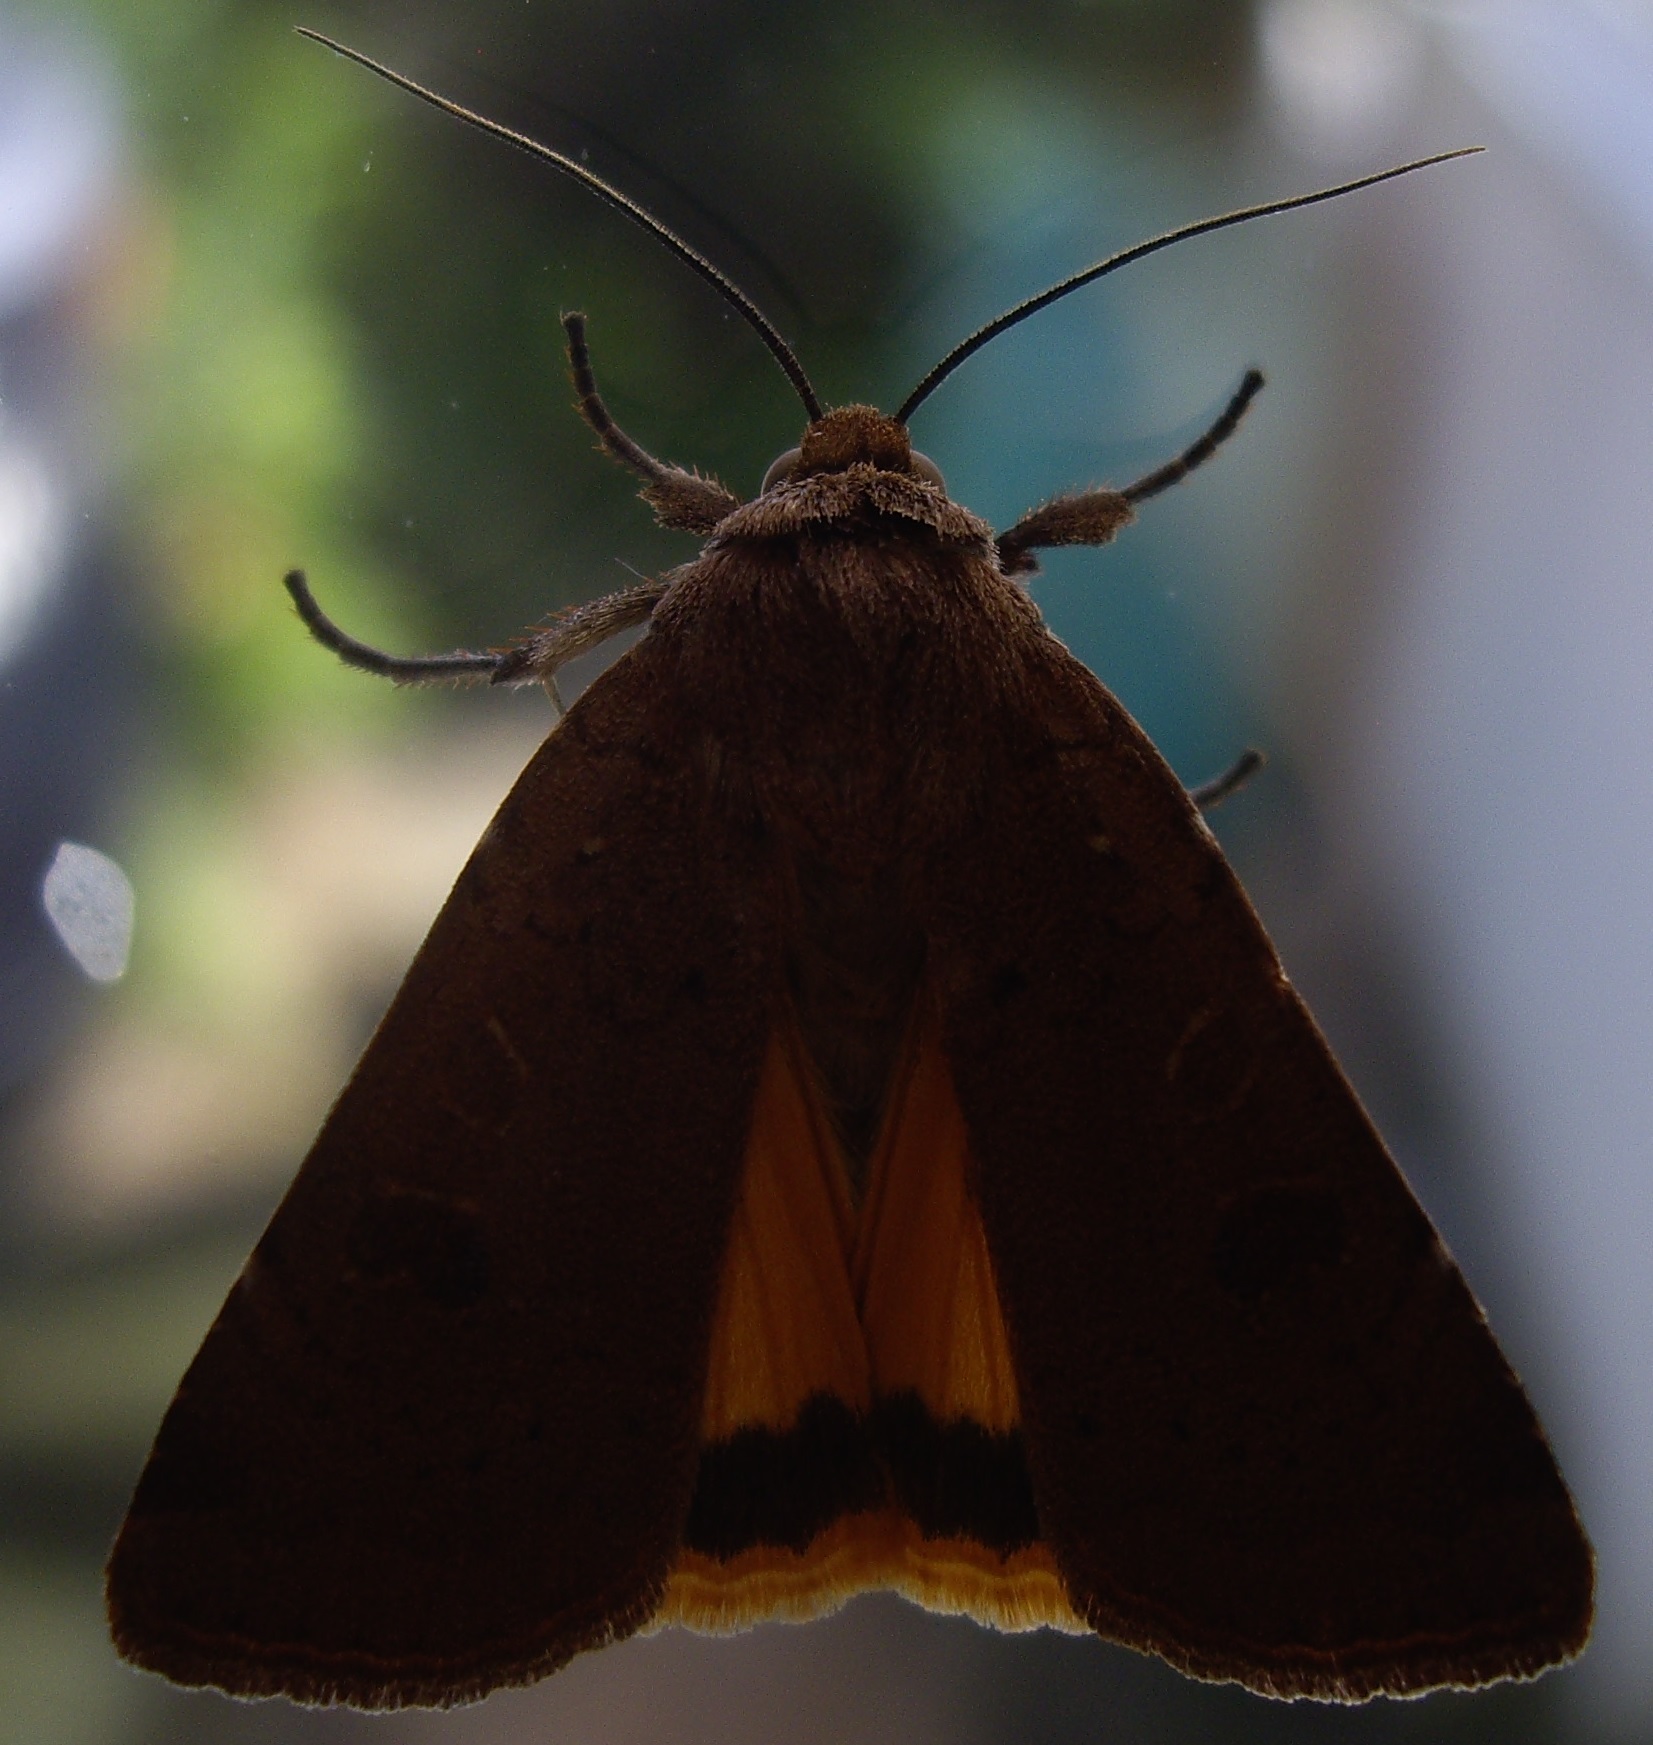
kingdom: Animalia
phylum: Arthropoda
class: Insecta
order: Lepidoptera
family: Noctuidae
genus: Noctua
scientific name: Noctua comes
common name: Lesser yellow underwing
